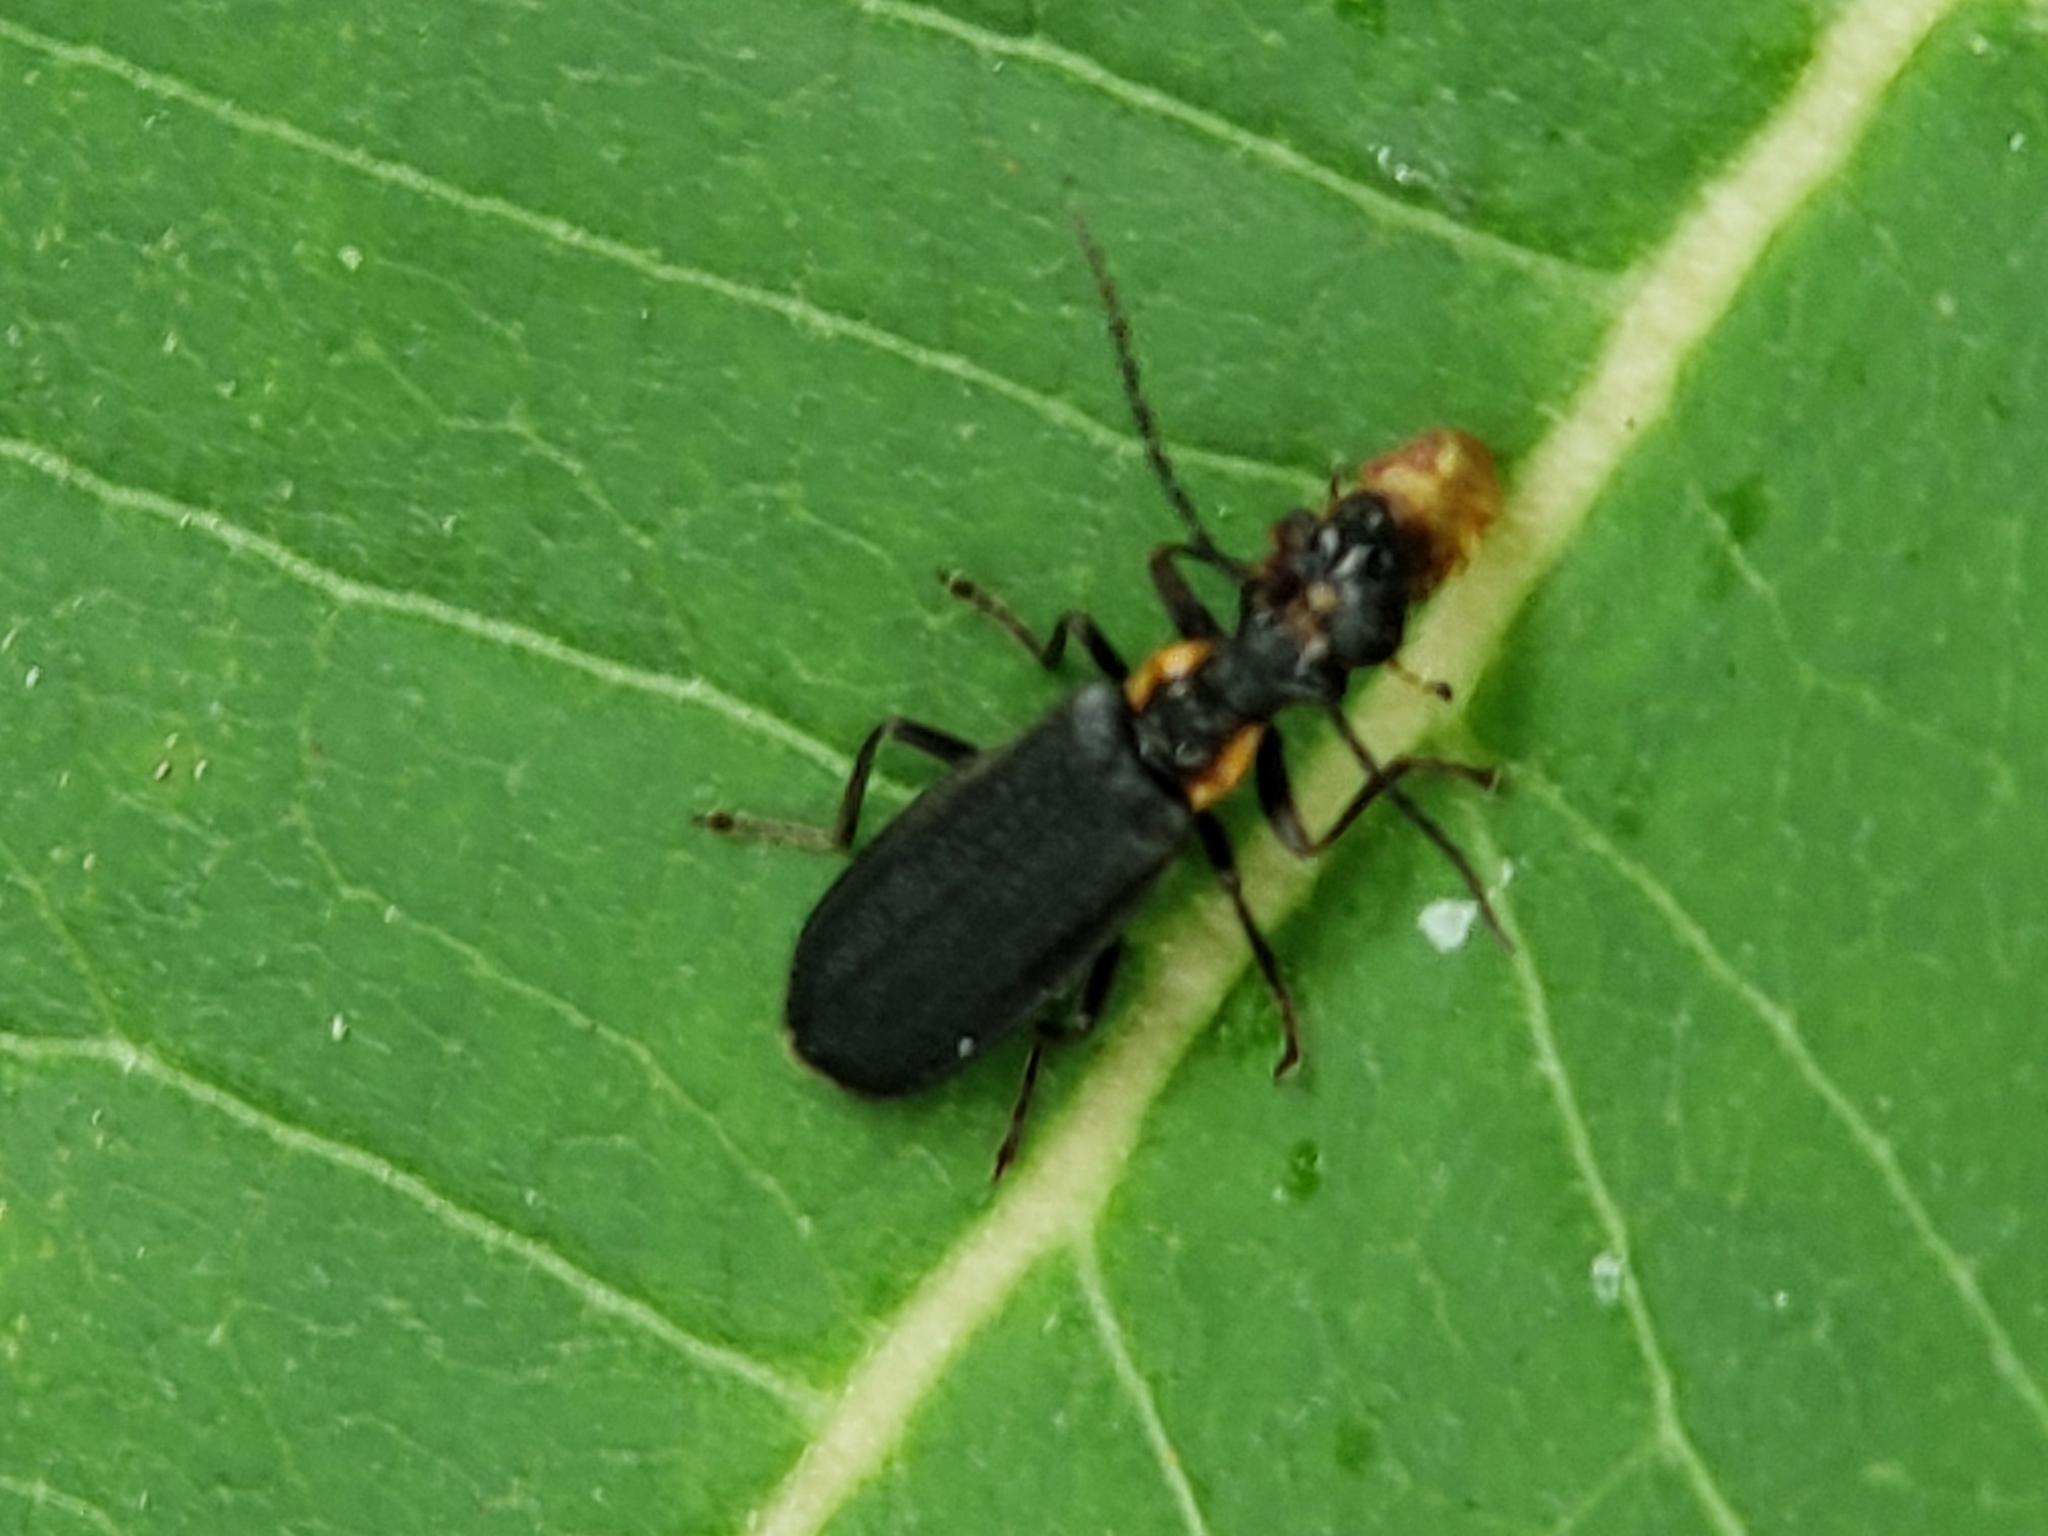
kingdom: Animalia
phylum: Arthropoda
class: Insecta
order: Coleoptera
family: Cantharidae
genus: Podabrus
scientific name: Podabrus rugosulus
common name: Wrinkled soldier beetle
